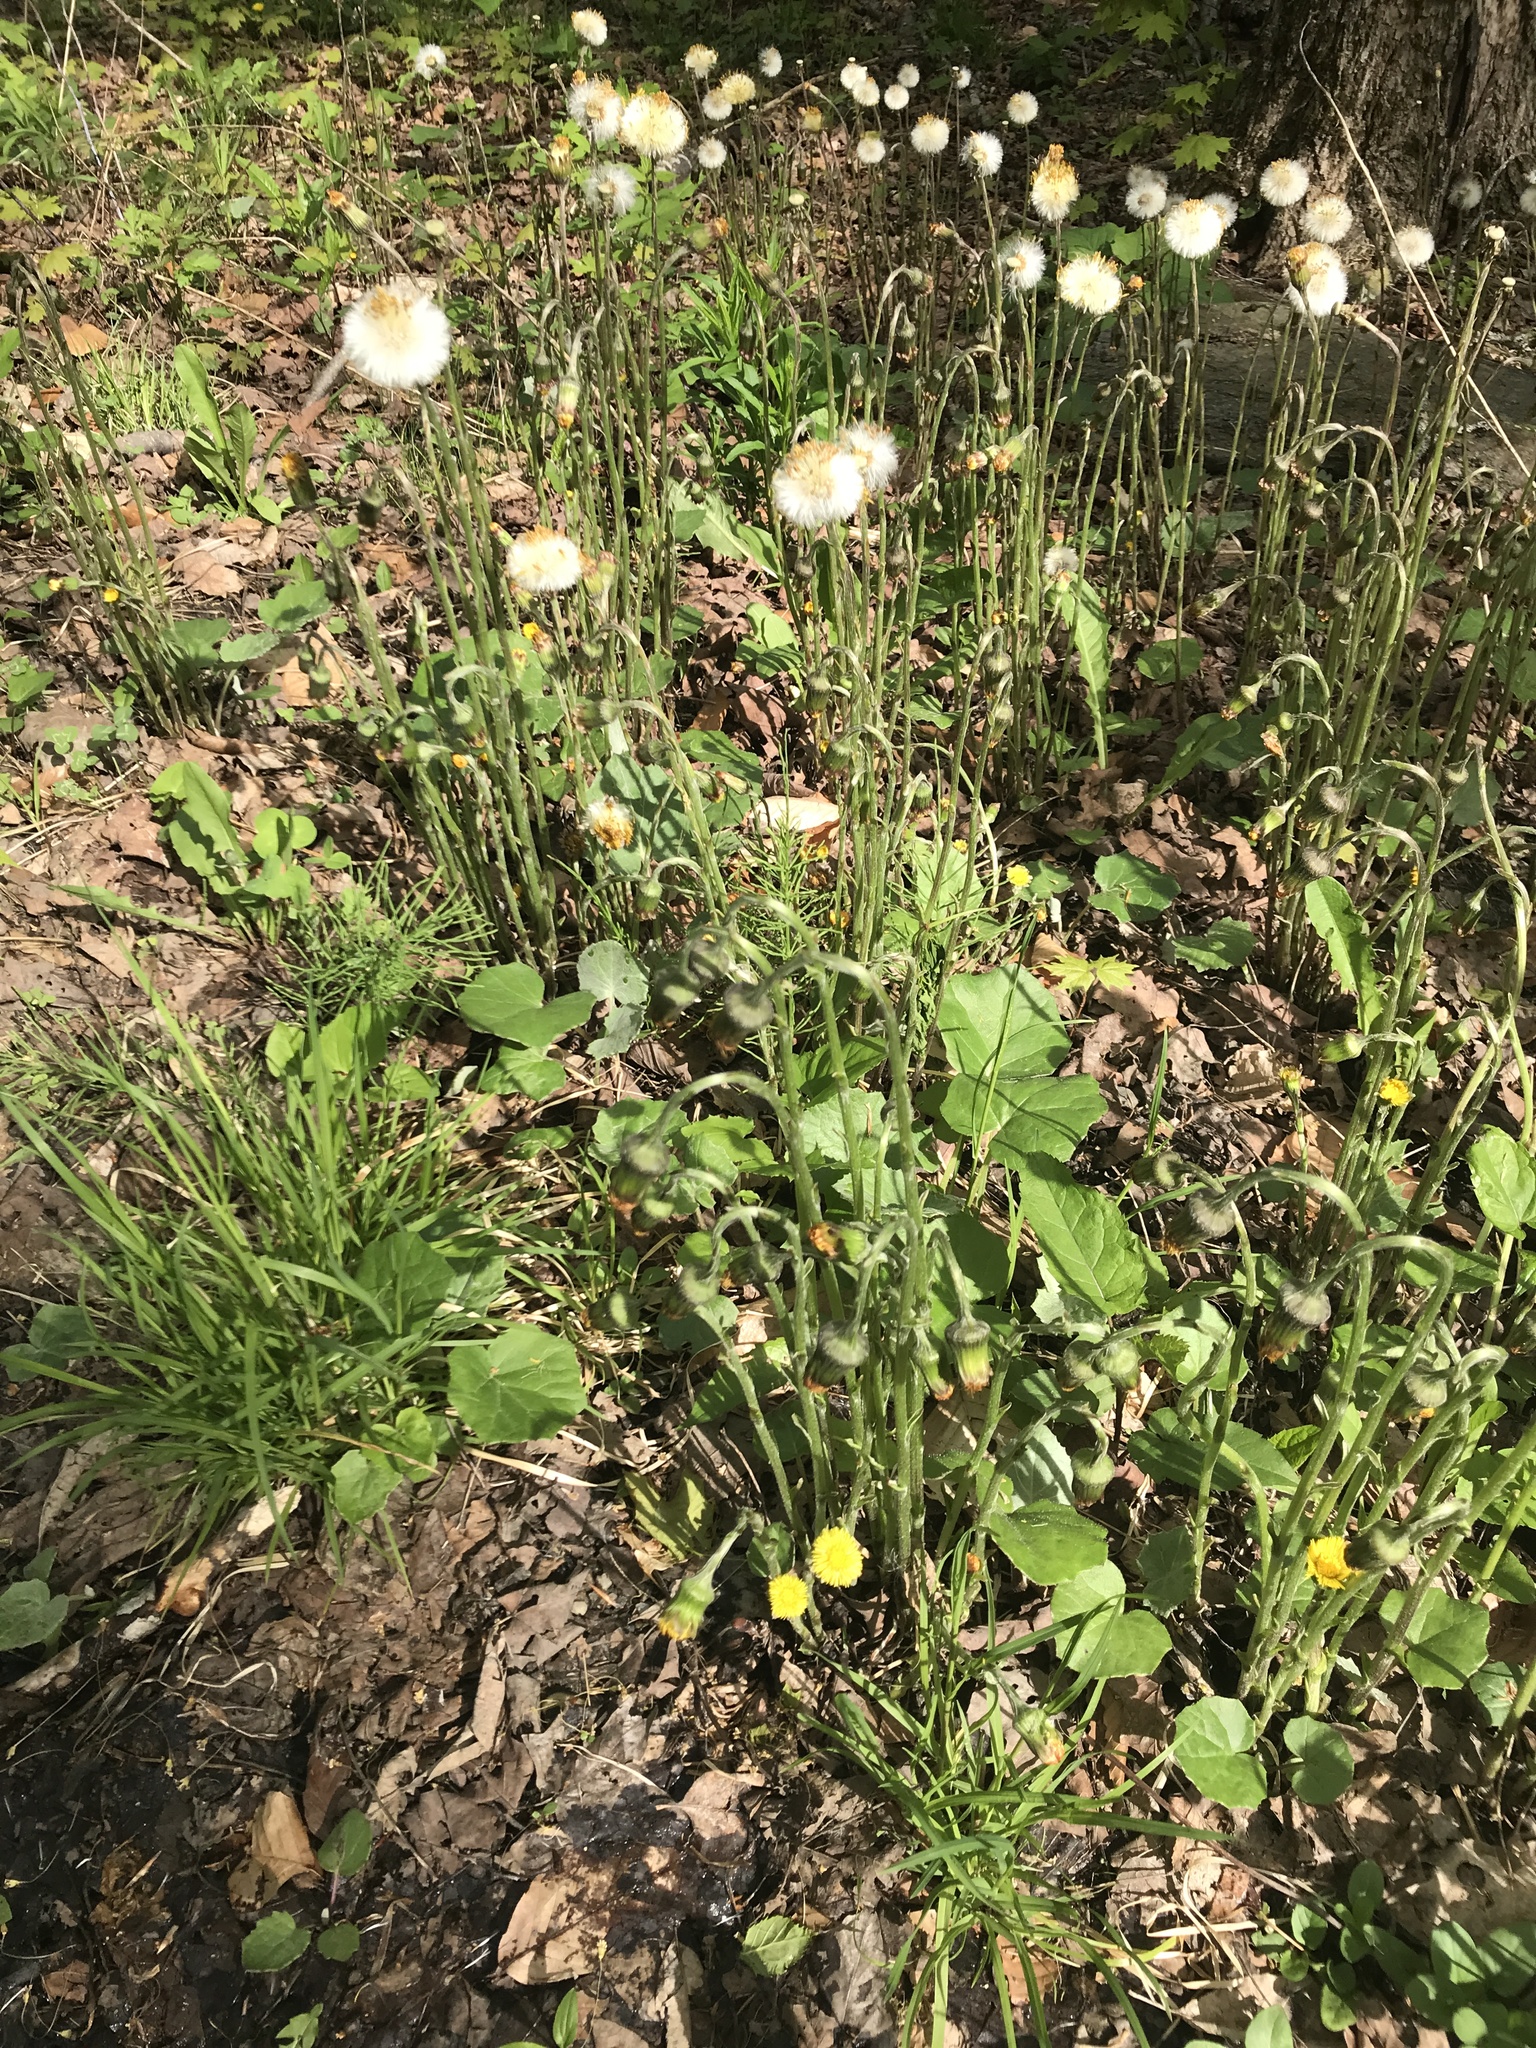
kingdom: Plantae
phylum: Tracheophyta
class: Magnoliopsida
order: Asterales
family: Asteraceae
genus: Tussilago
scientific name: Tussilago farfara
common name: Coltsfoot
